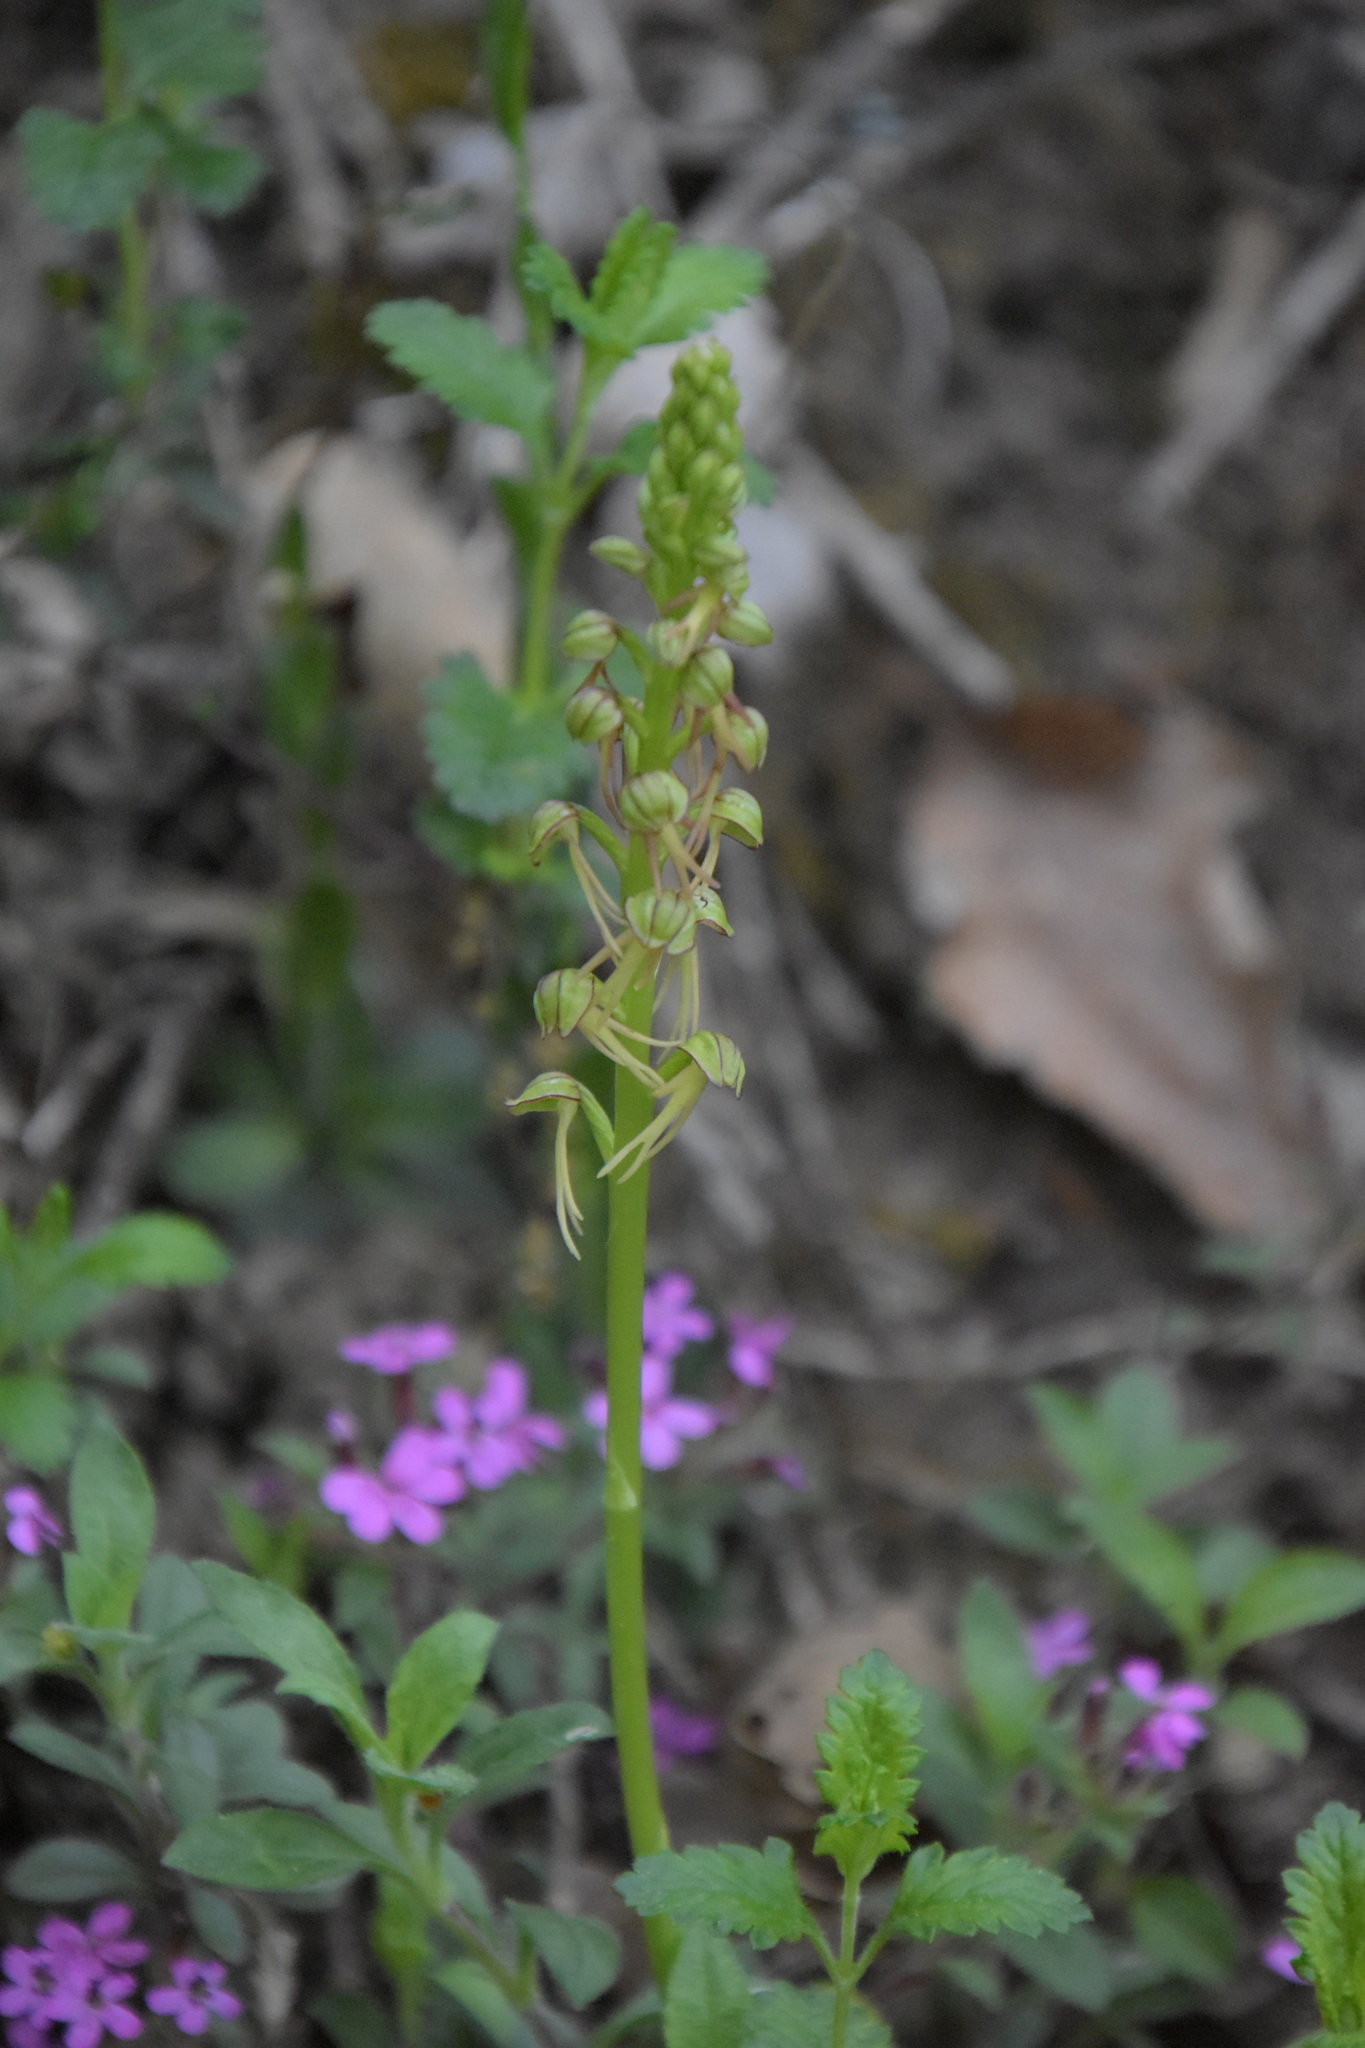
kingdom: Plantae
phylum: Tracheophyta
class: Liliopsida
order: Asparagales
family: Orchidaceae
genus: Orchis
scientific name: Orchis anthropophora
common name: Man orchid
